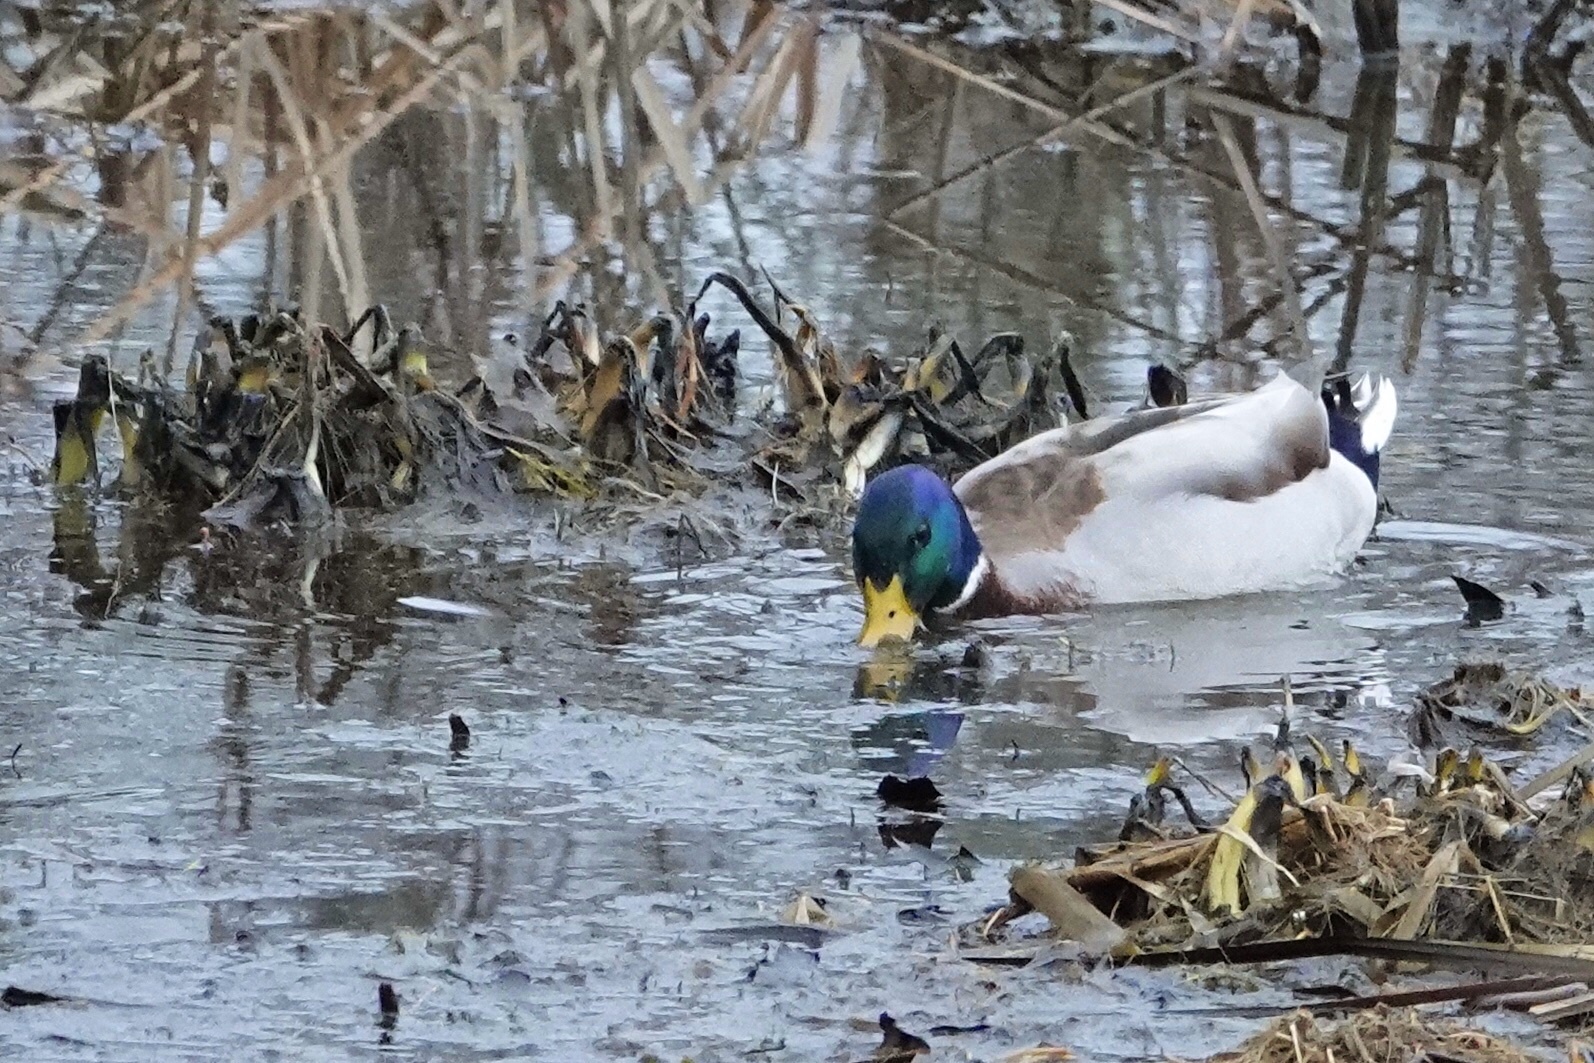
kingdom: Animalia
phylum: Chordata
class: Aves
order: Anseriformes
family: Anatidae
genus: Anas
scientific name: Anas platyrhynchos
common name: Mallard
